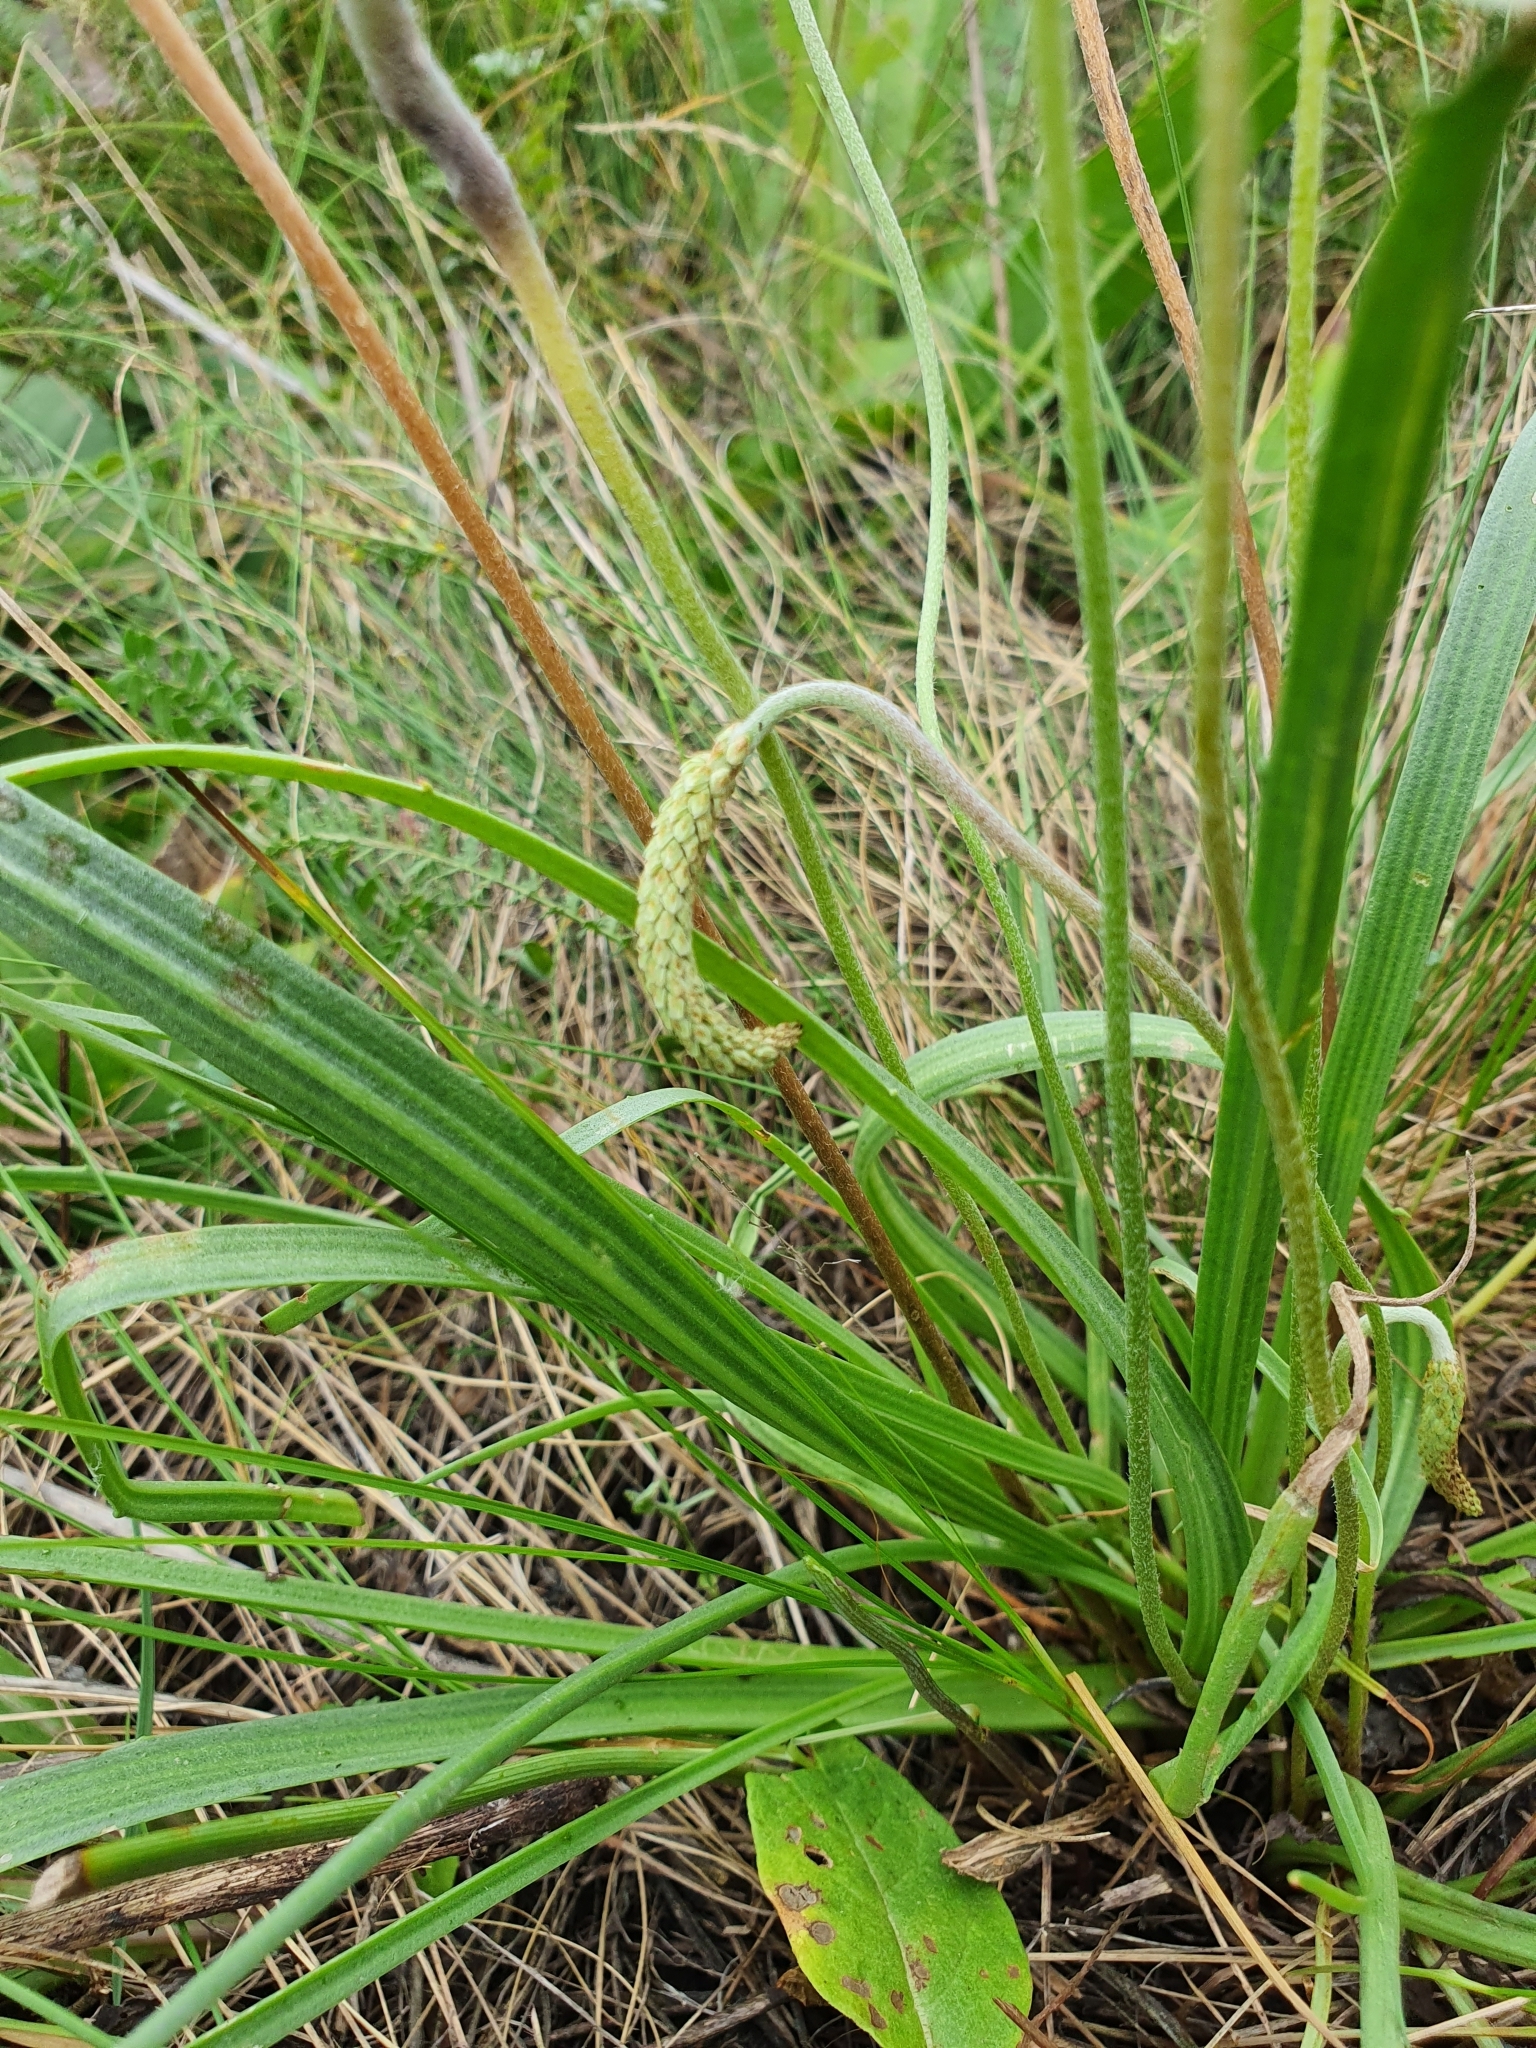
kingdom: Plantae
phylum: Tracheophyta
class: Magnoliopsida
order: Lamiales
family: Plantaginaceae
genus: Plantago
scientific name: Plantago salsa
